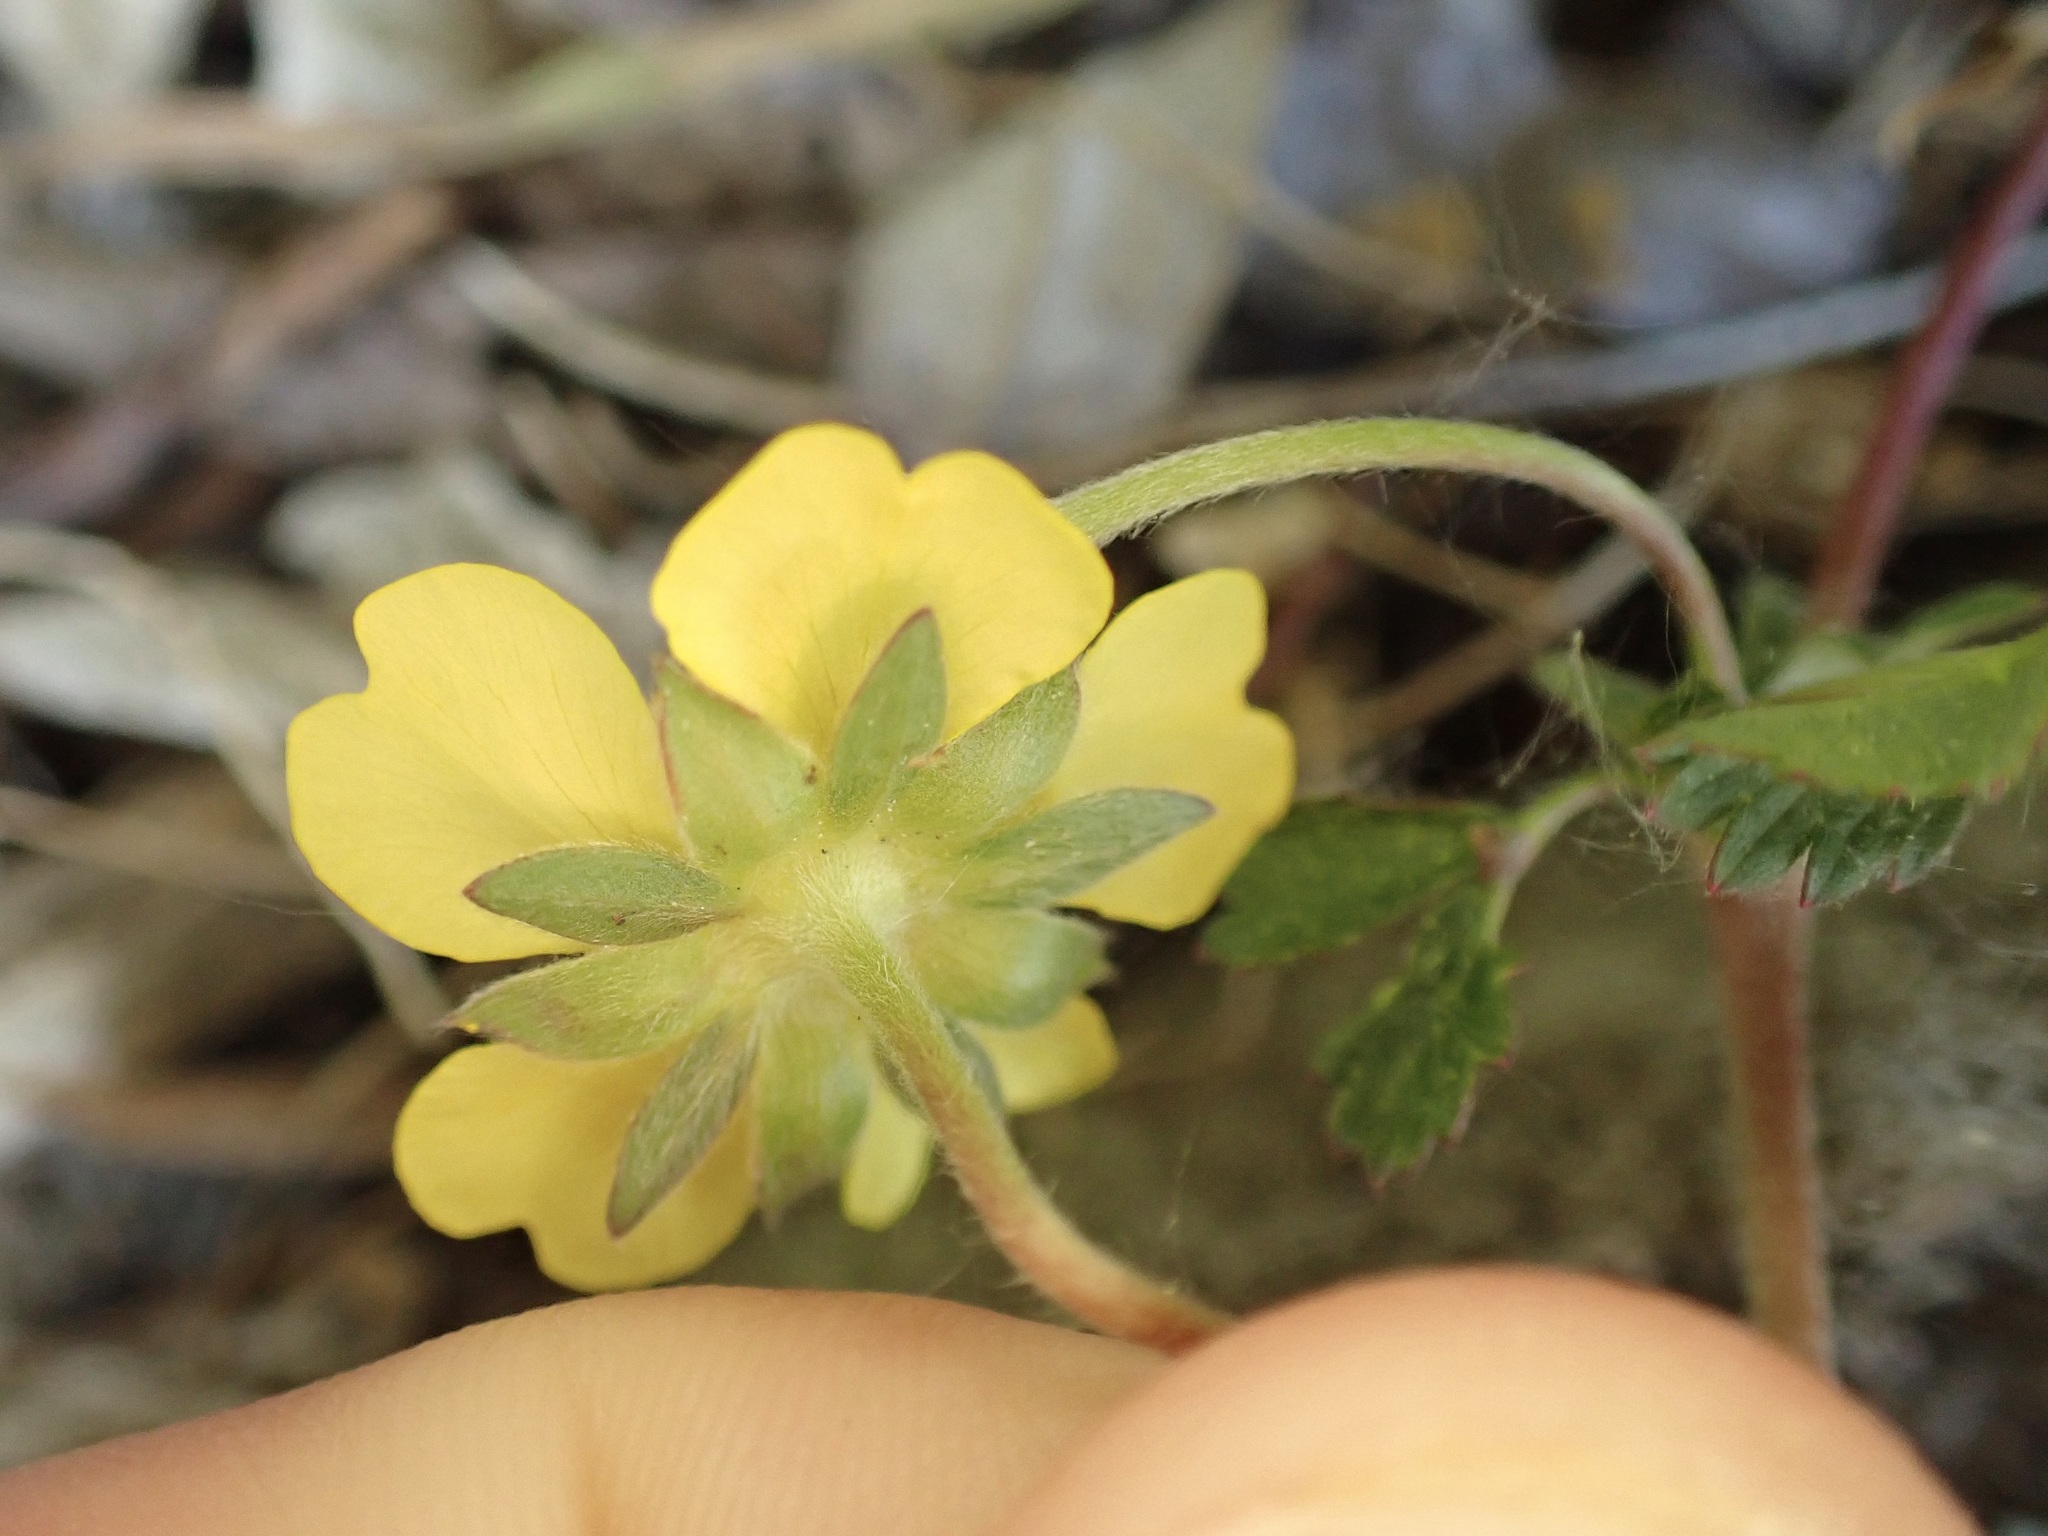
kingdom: Plantae
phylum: Tracheophyta
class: Magnoliopsida
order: Rosales
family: Rosaceae
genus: Potentilla
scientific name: Potentilla reptans
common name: Creeping cinquefoil
